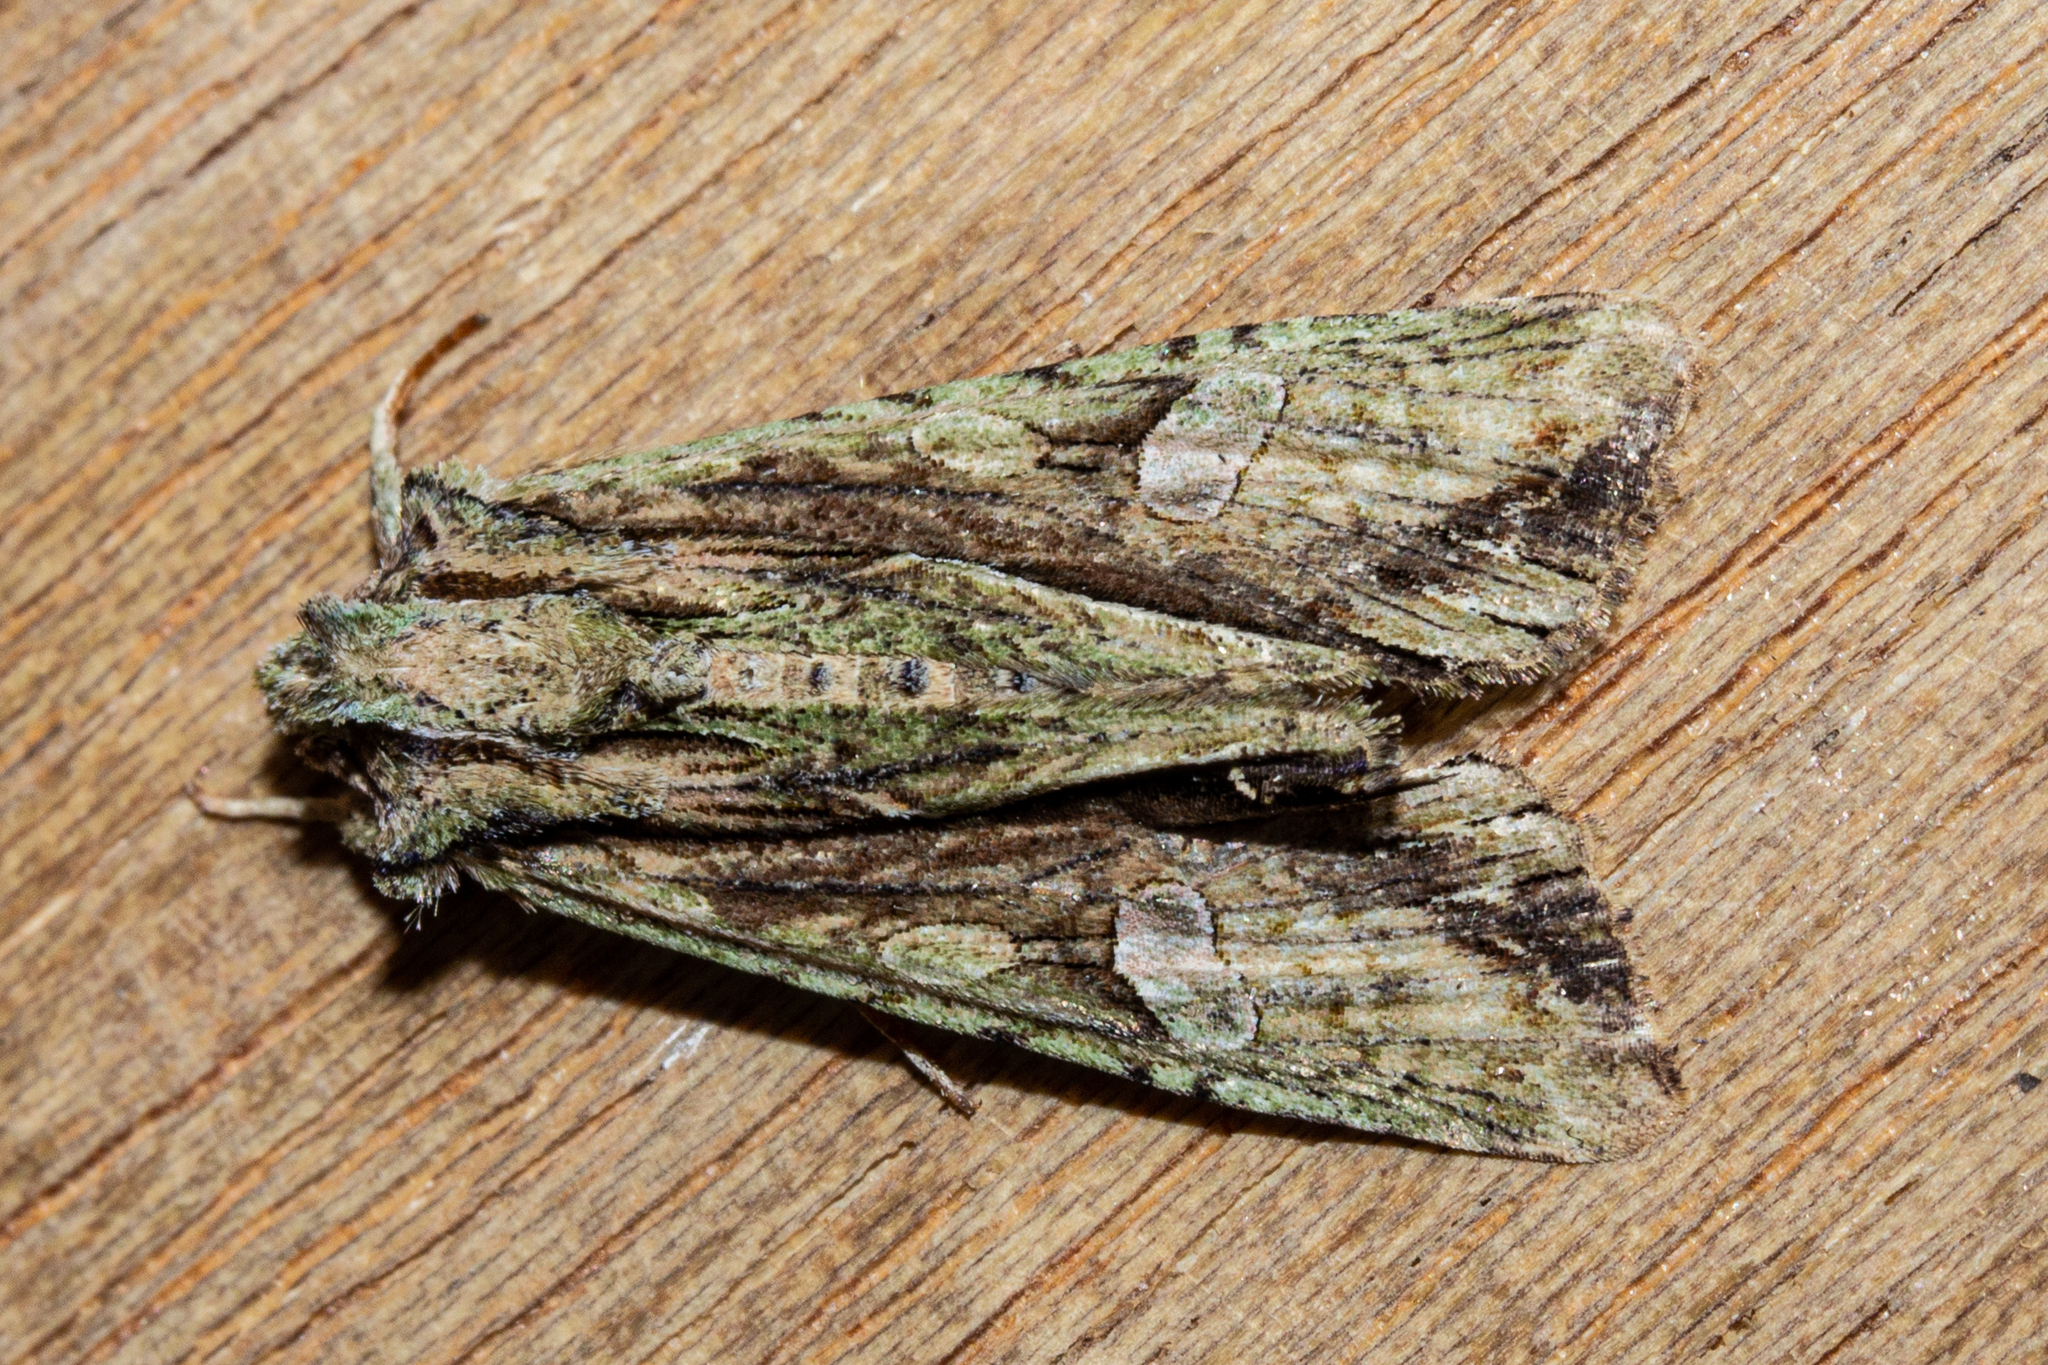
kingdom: Animalia
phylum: Arthropoda
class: Insecta
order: Lepidoptera
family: Noctuidae
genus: Meterana
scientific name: Meterana decorata
